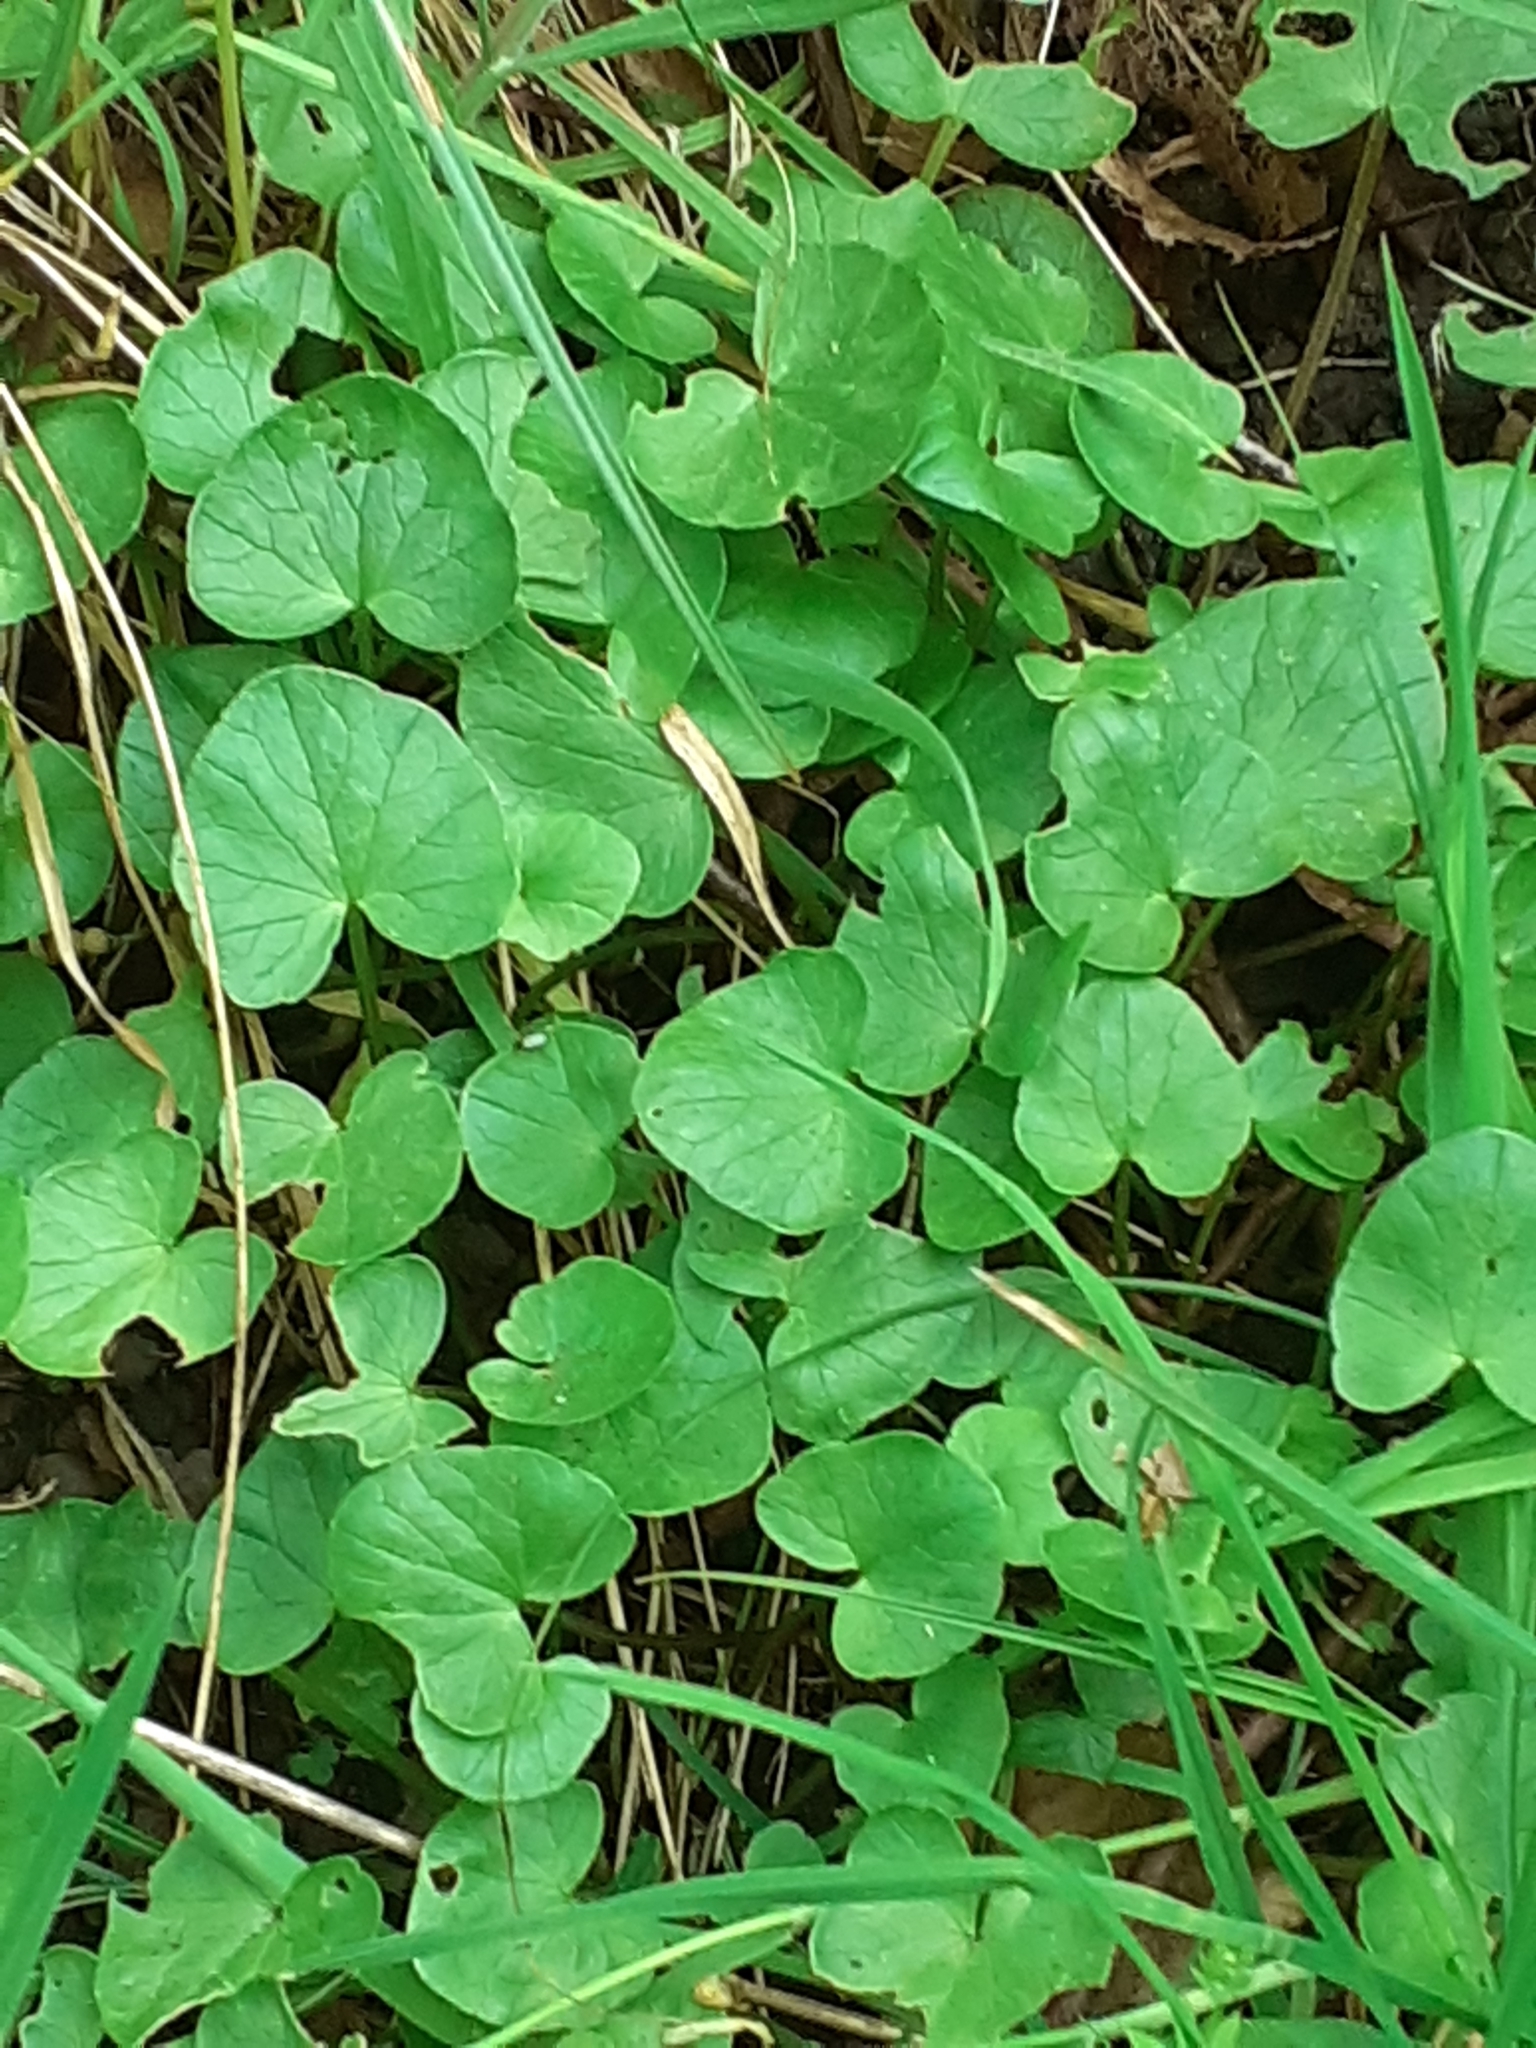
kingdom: Plantae
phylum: Tracheophyta
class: Magnoliopsida
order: Ranunculales
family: Ranunculaceae
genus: Ficaria
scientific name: Ficaria verna
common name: Lesser celandine
